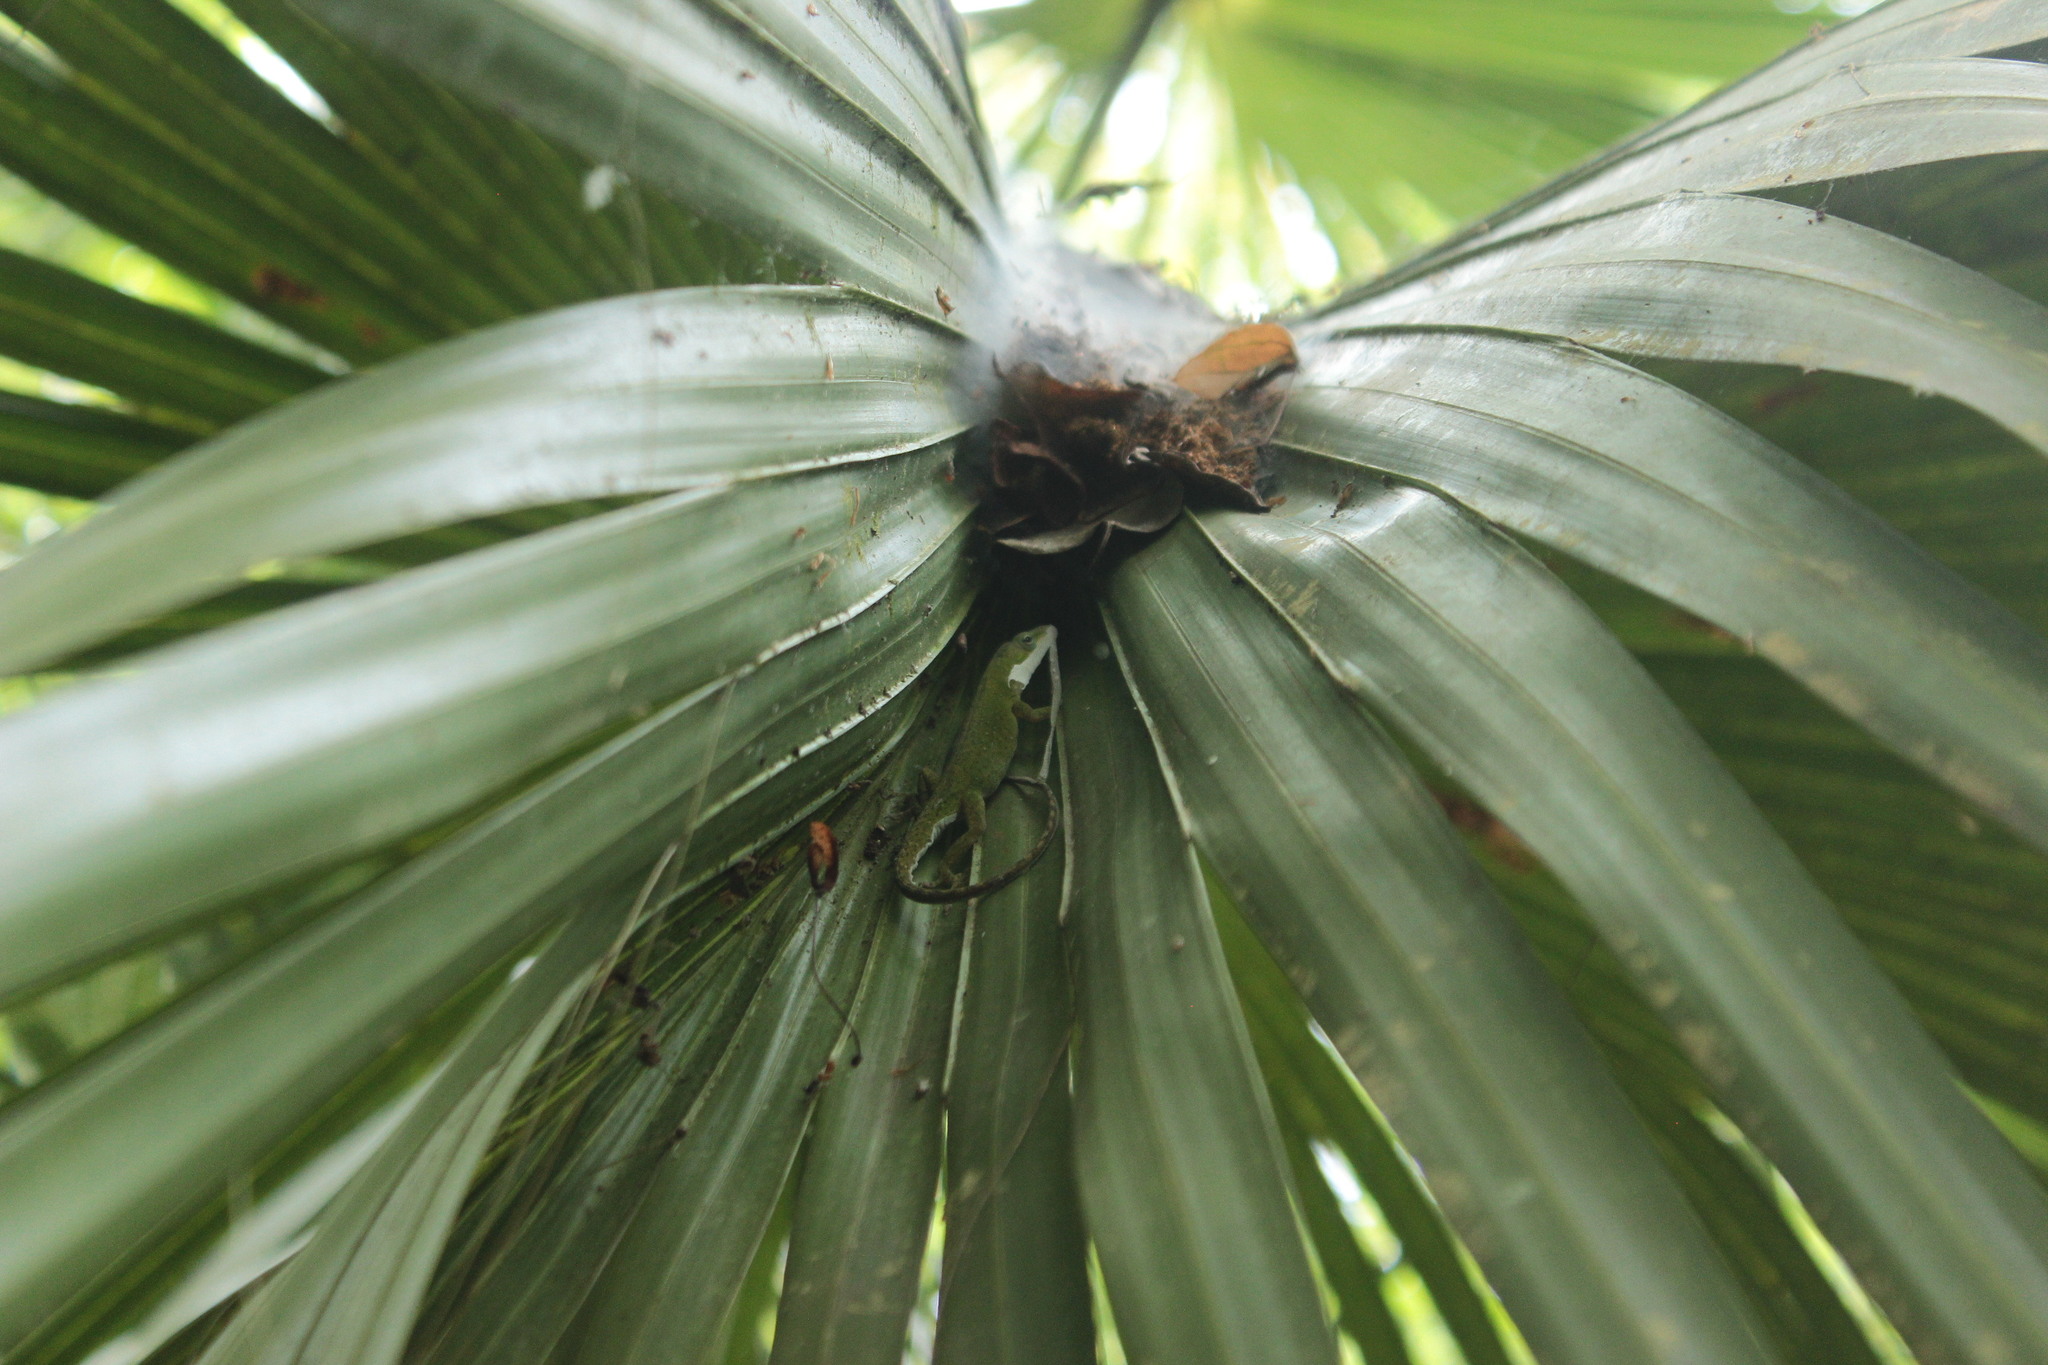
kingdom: Animalia
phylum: Chordata
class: Squamata
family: Dactyloidae
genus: Anolis
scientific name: Anolis carolinensis
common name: Green anole
